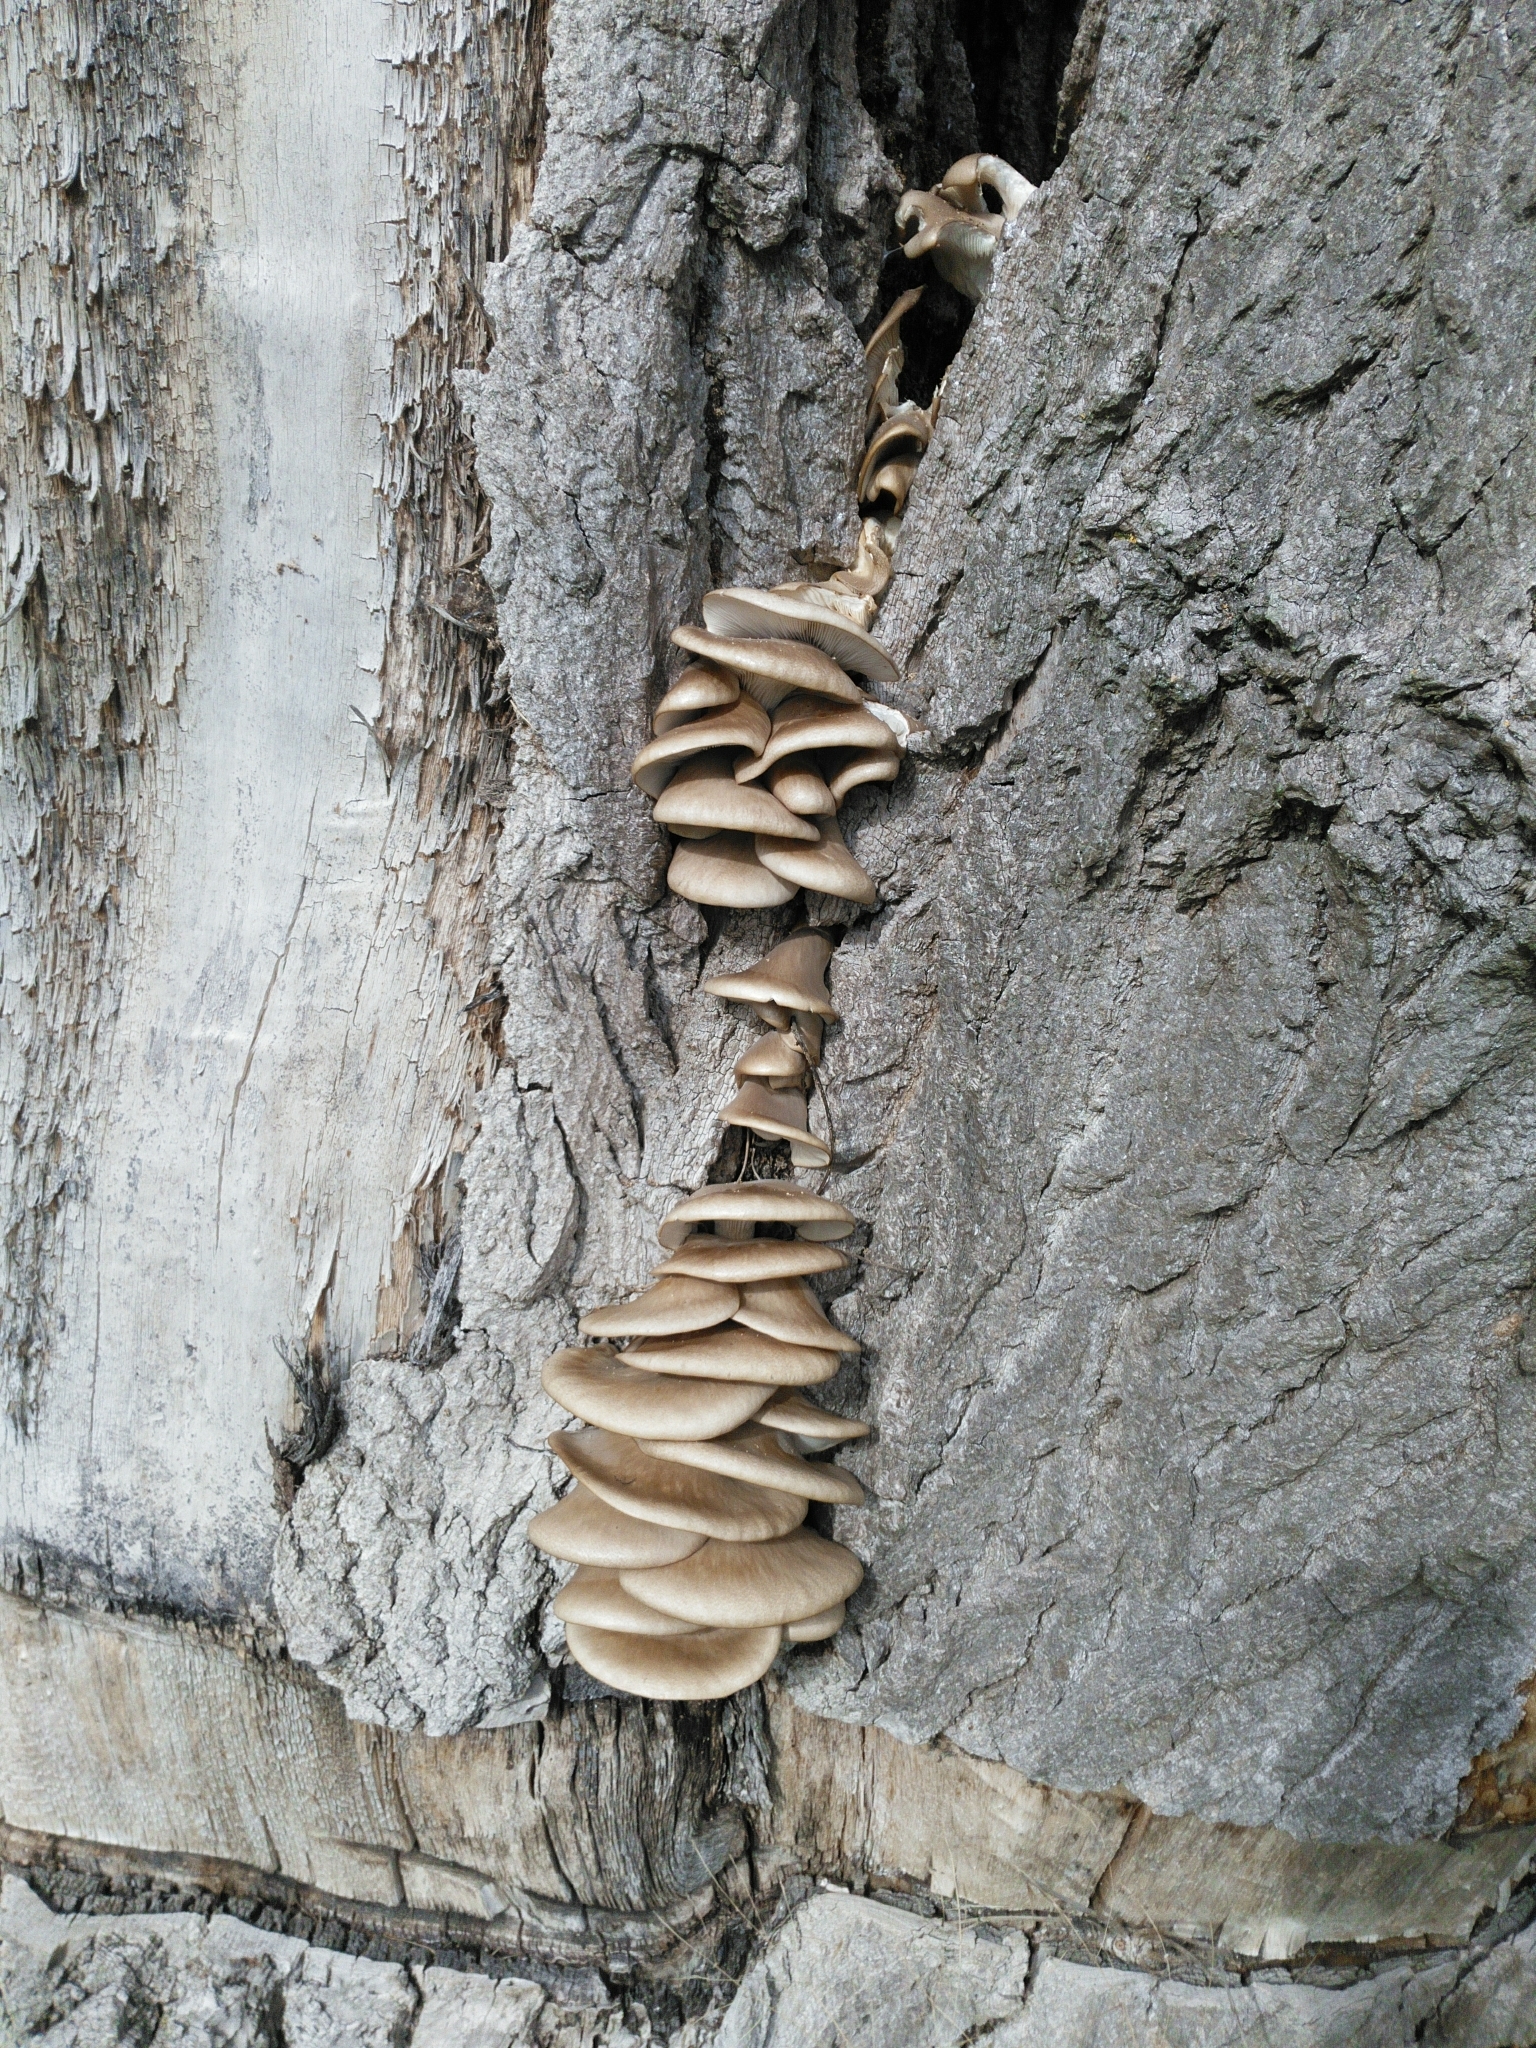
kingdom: Fungi
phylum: Basidiomycota
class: Agaricomycetes
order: Agaricales
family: Pleurotaceae
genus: Pleurotus
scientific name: Pleurotus ostreatus
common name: Oyster mushroom
